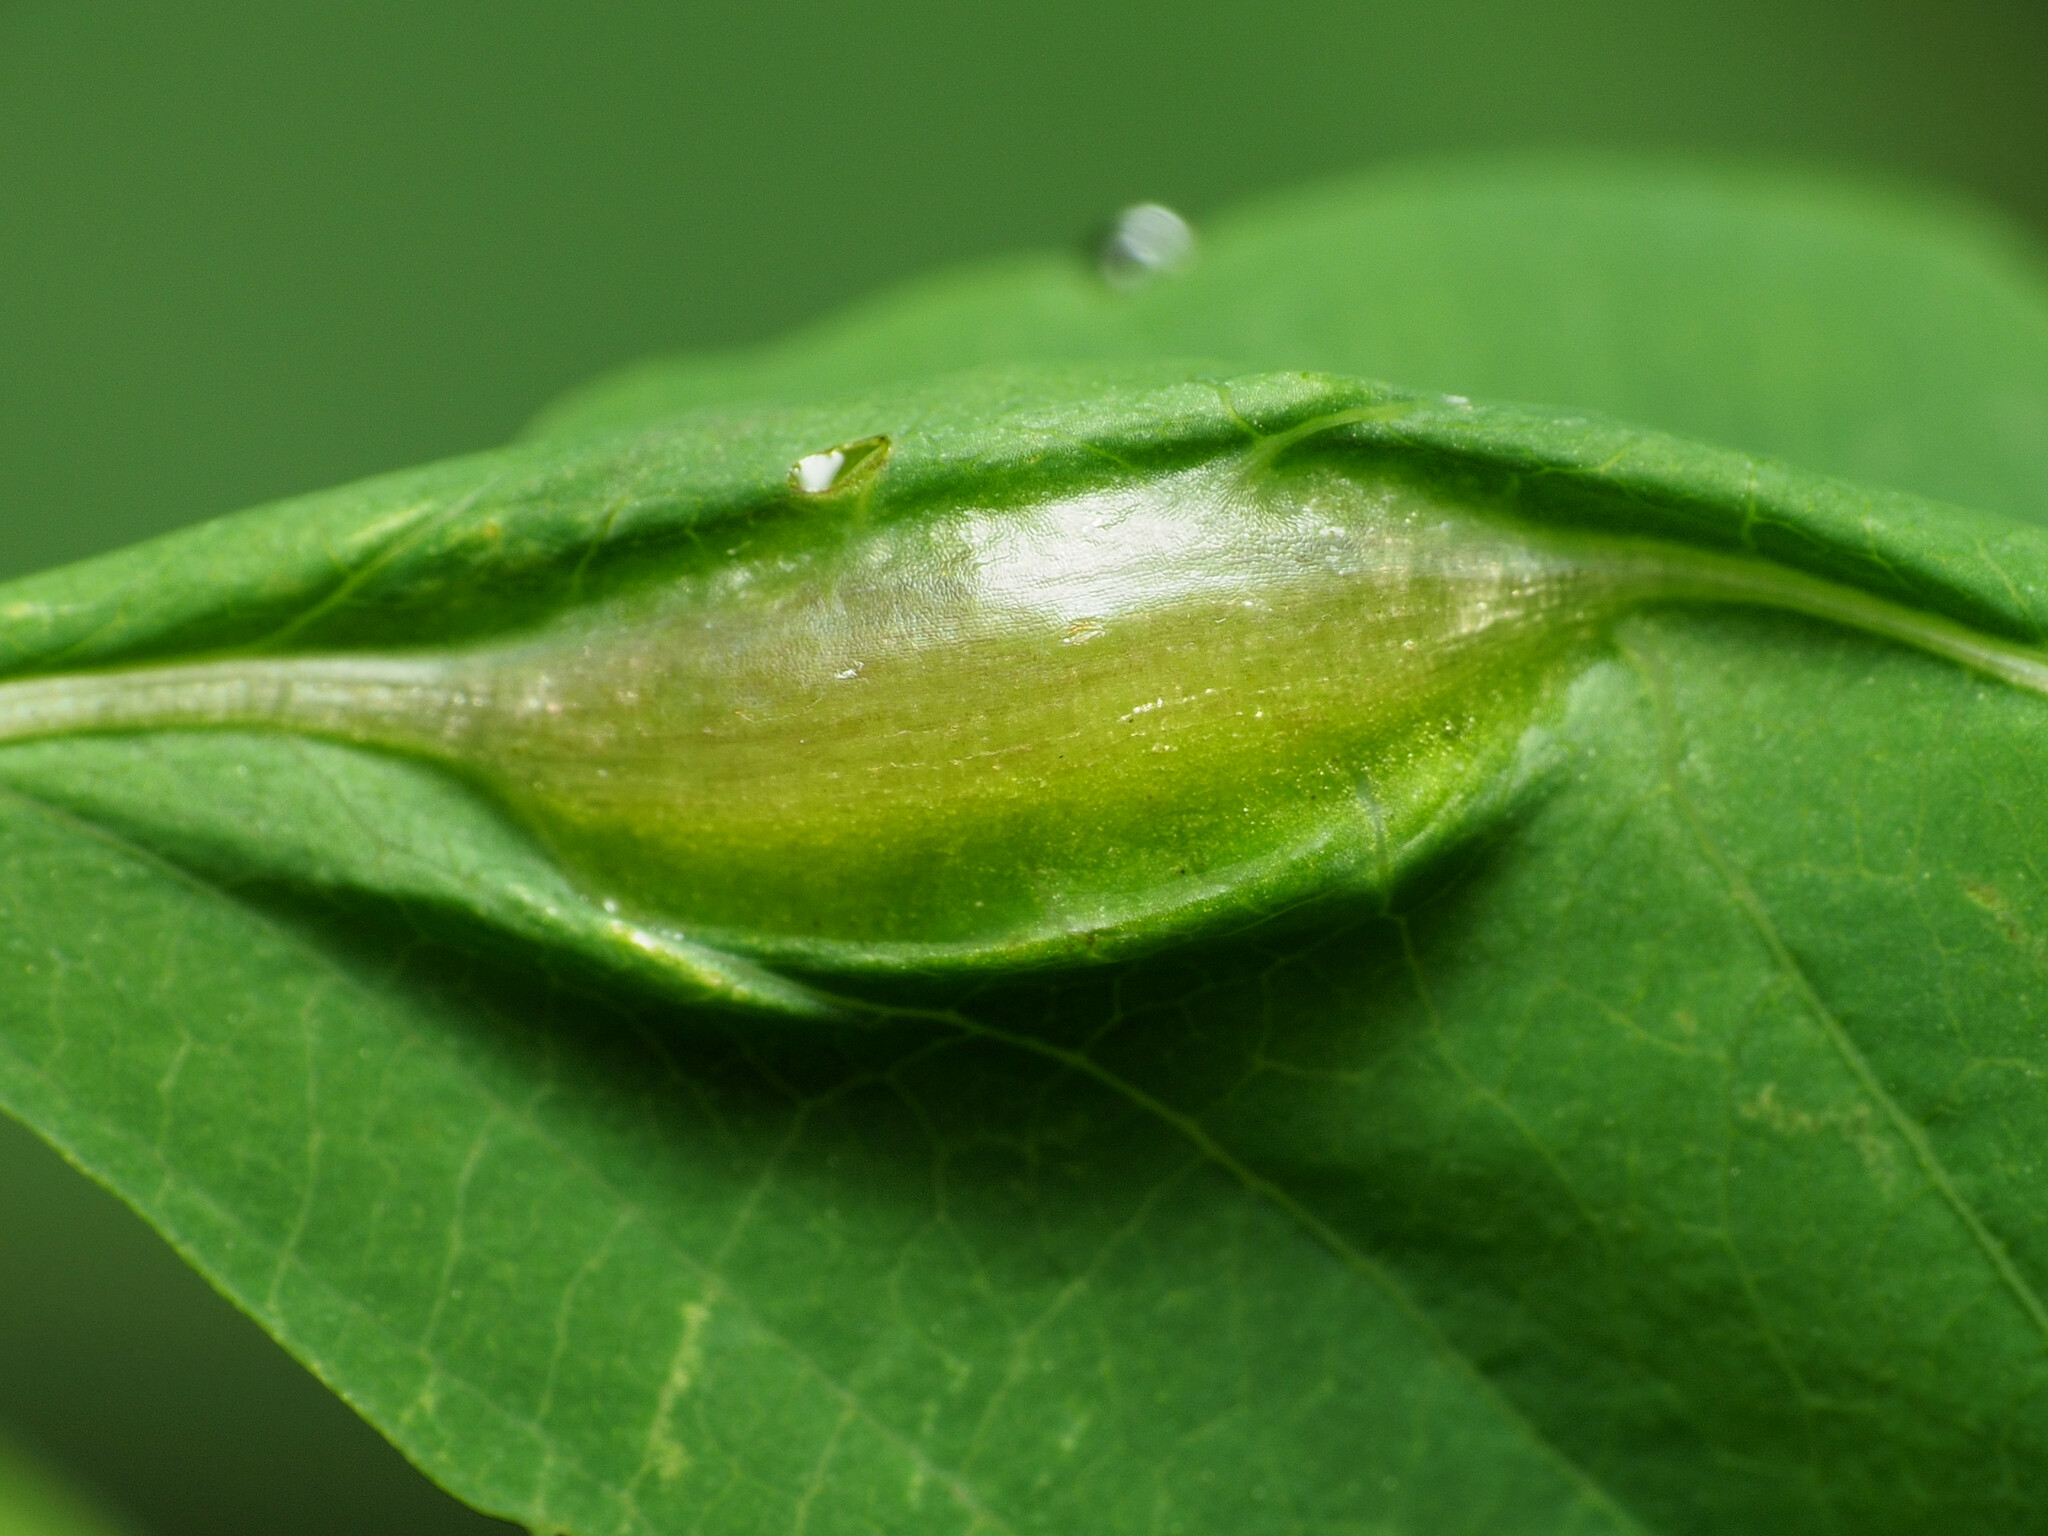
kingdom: Animalia
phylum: Arthropoda
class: Insecta
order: Diptera
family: Cecidomyiidae
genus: Neolasioptera
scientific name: Neolasioptera impatientifolia
